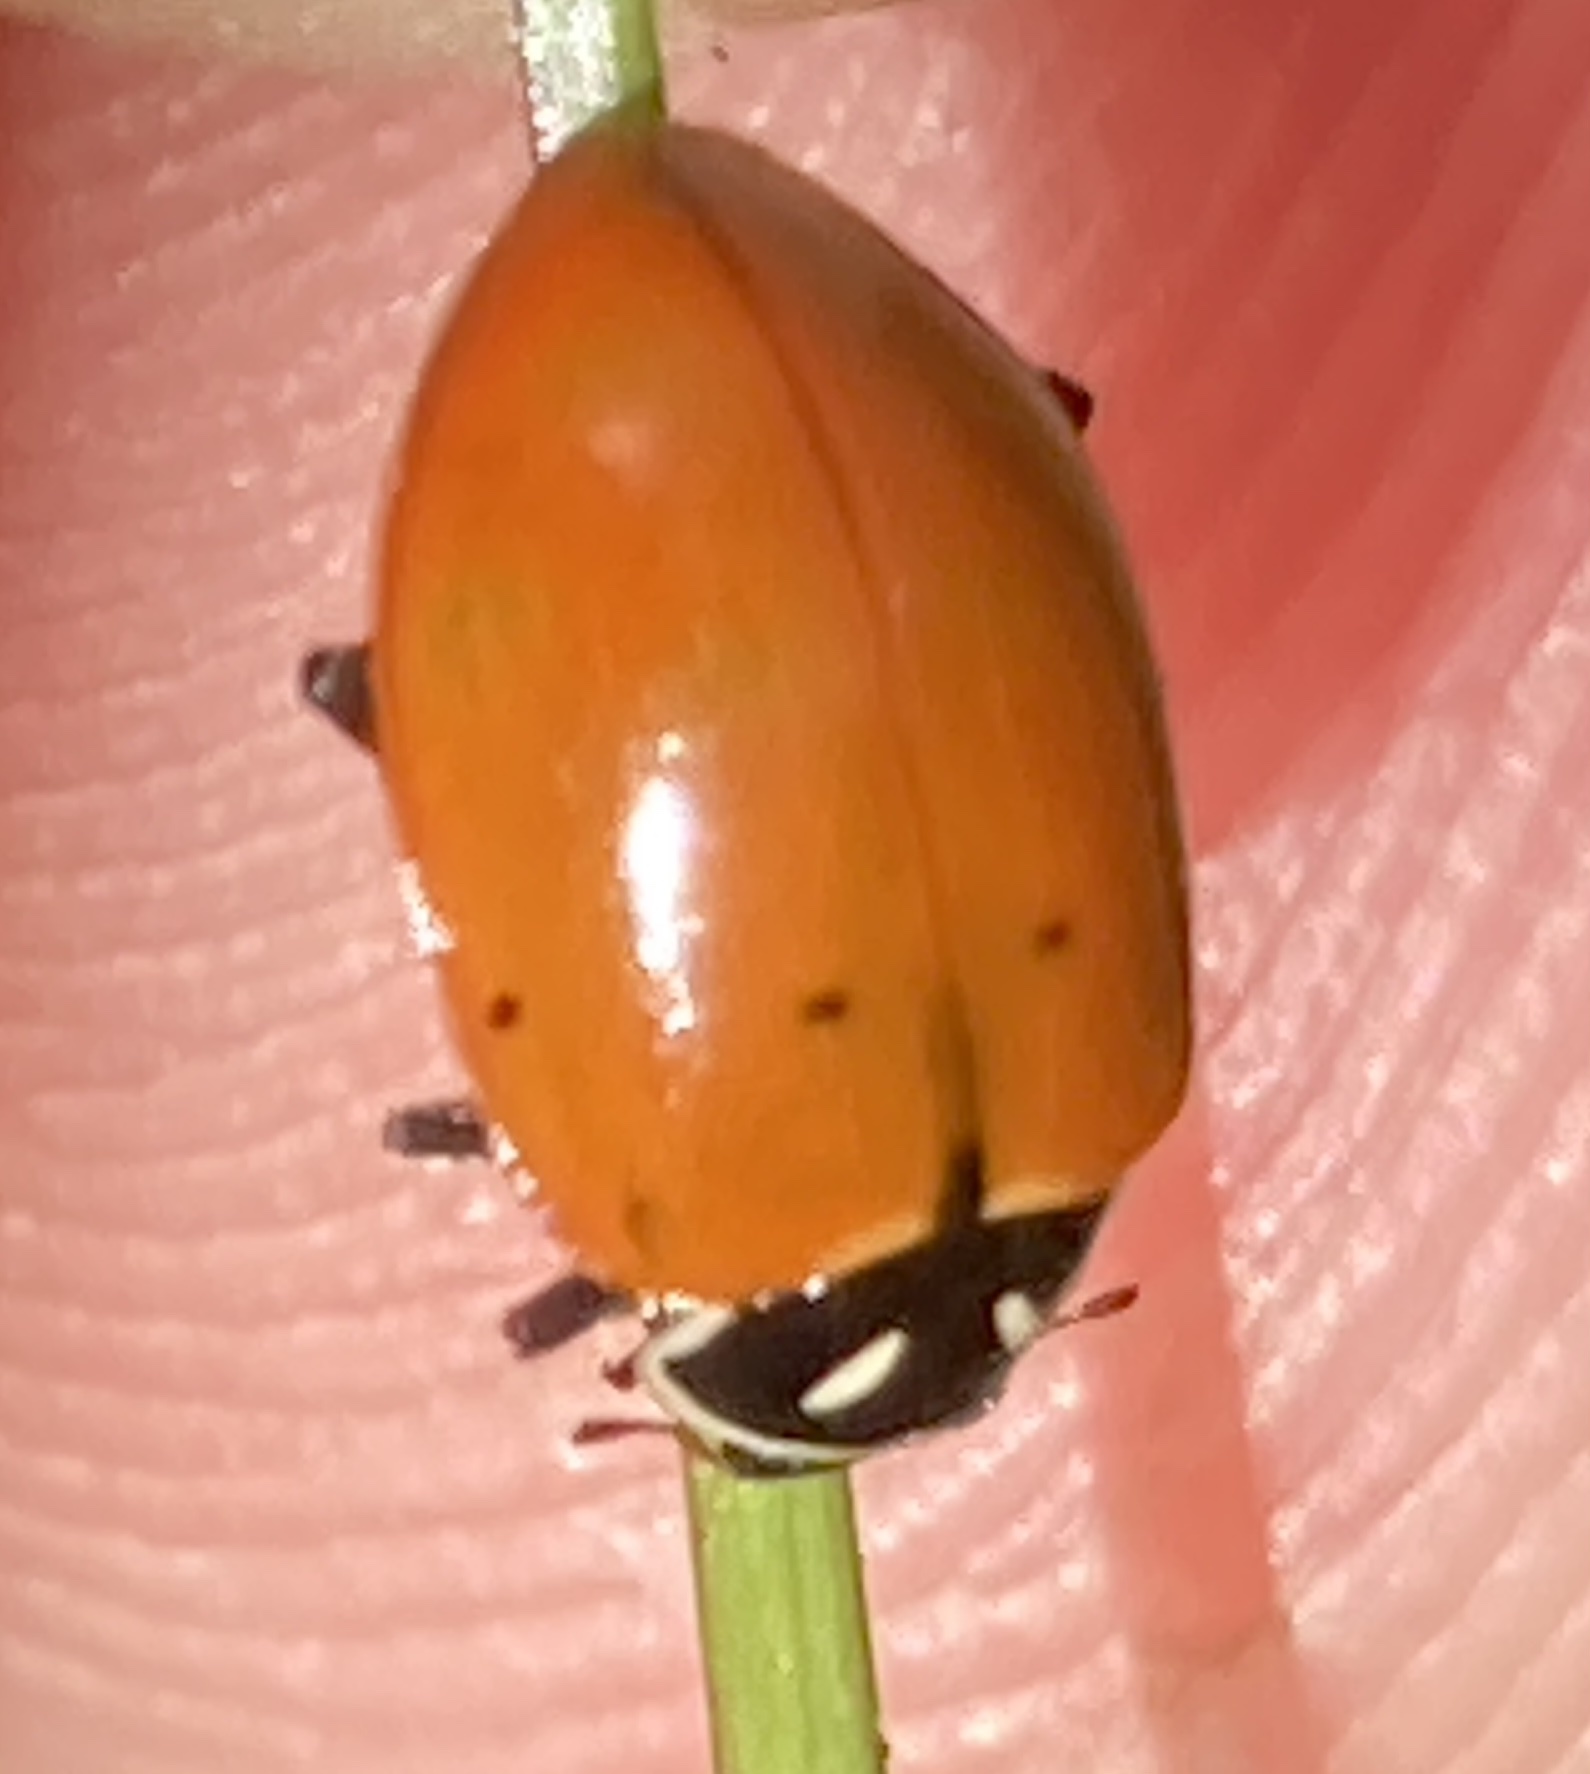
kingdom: Animalia
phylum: Arthropoda
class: Insecta
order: Coleoptera
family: Coccinellidae
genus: Hippodamia
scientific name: Hippodamia convergens
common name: Convergent lady beetle
